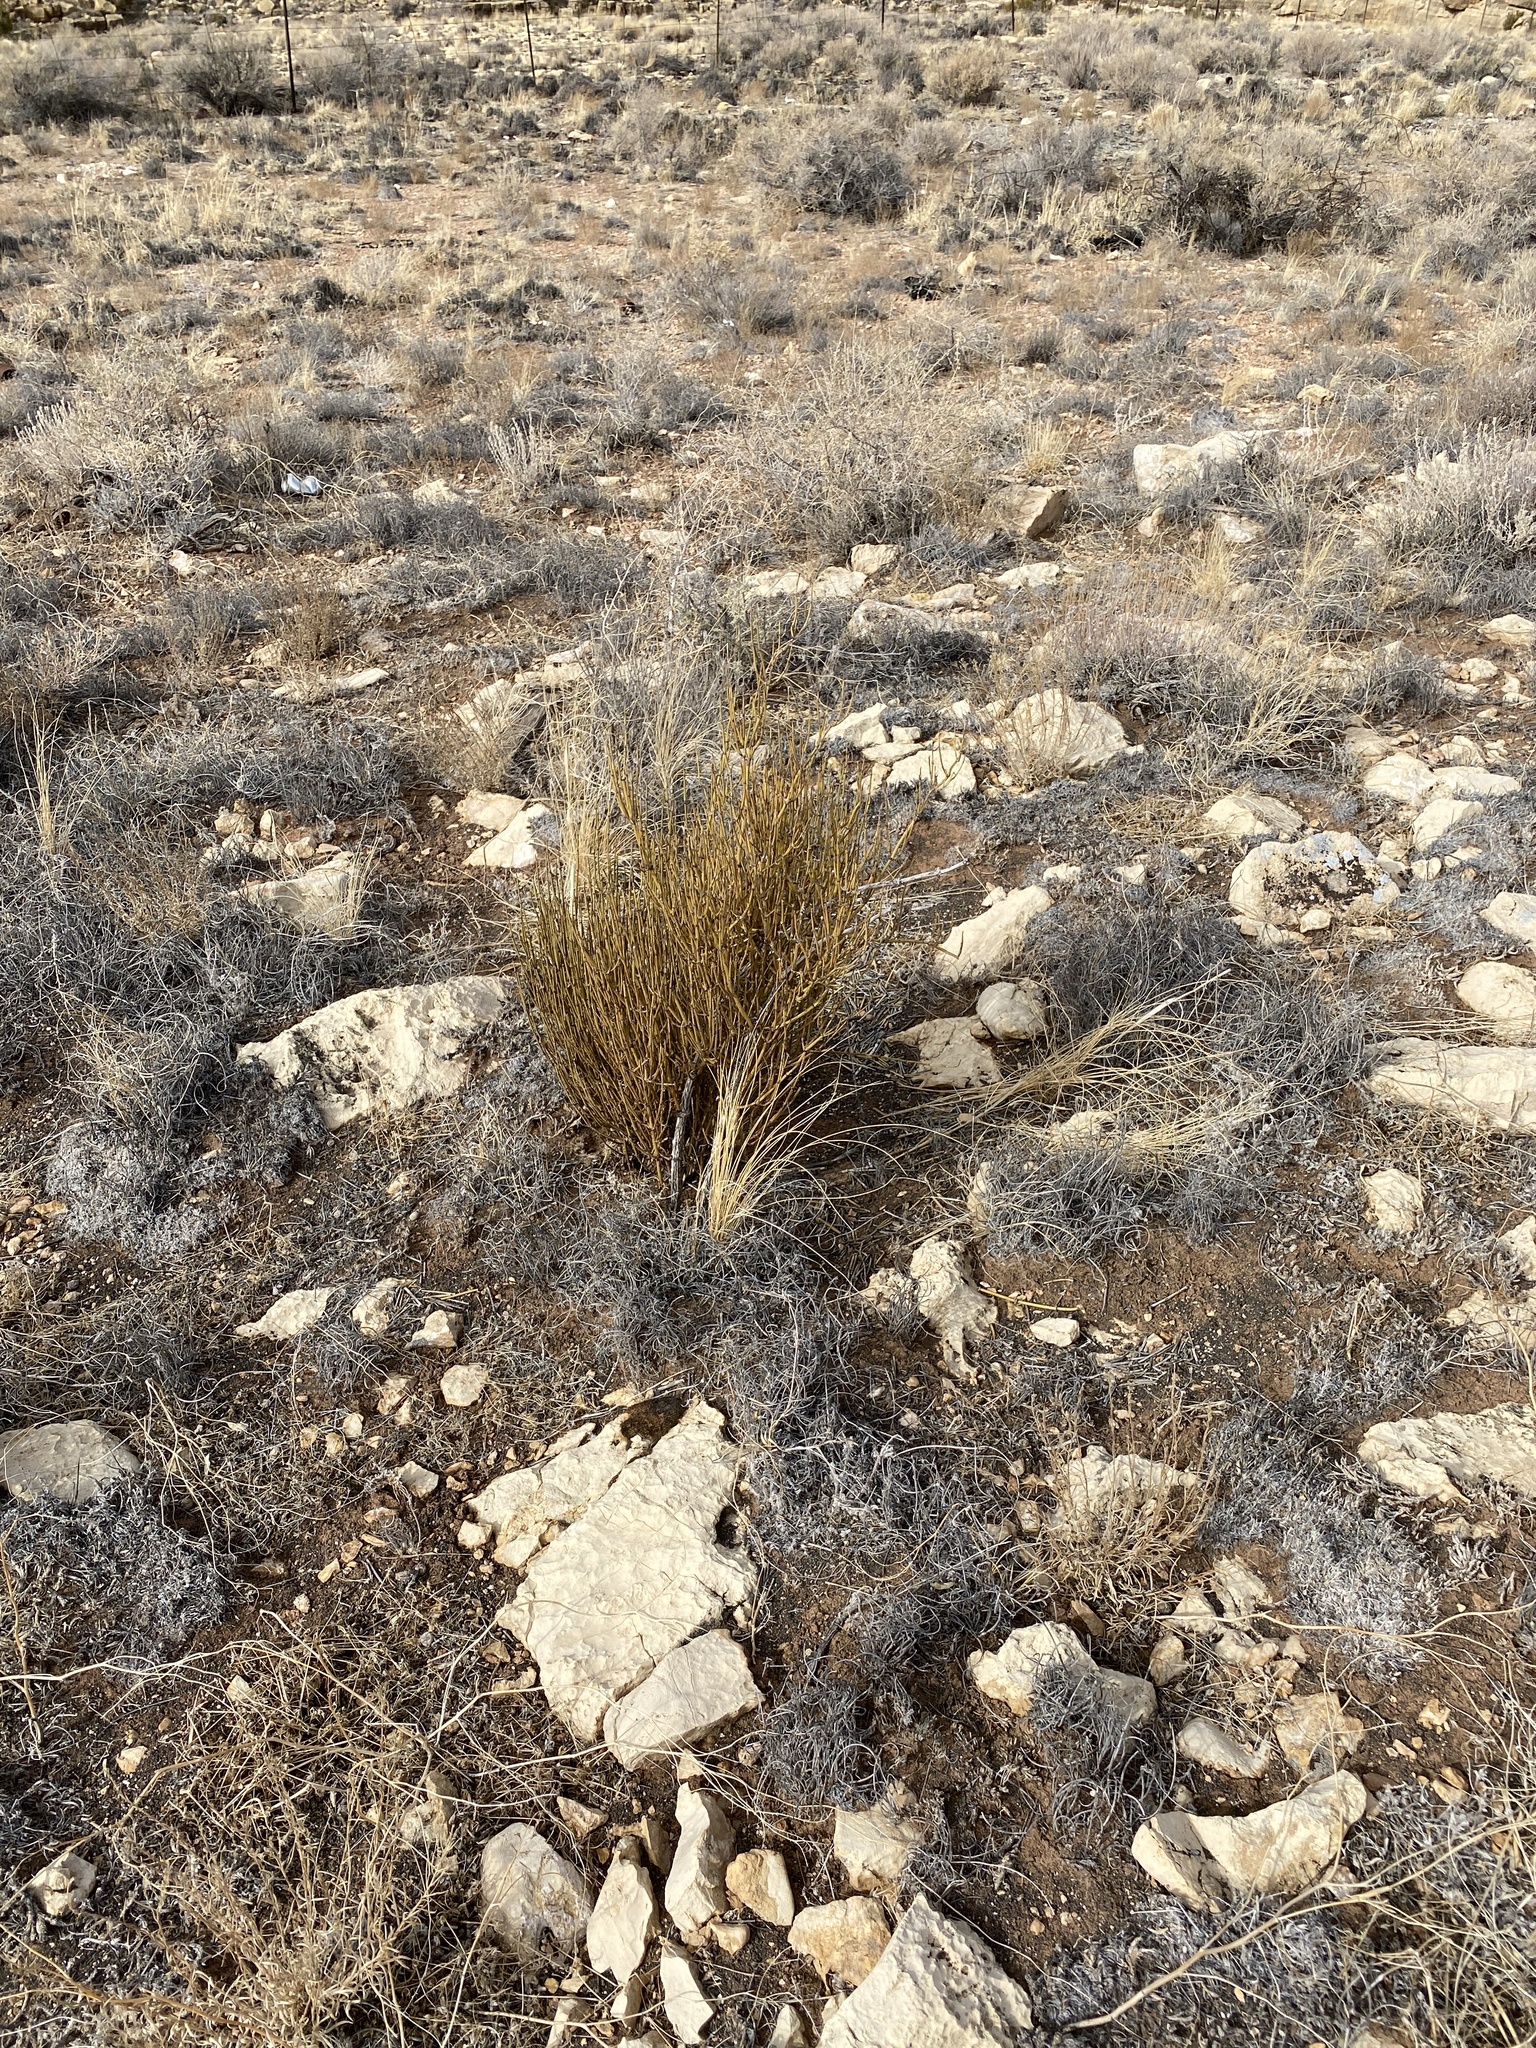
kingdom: Plantae
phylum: Tracheophyta
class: Gnetopsida
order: Ephedrales
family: Ephedraceae
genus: Ephedra
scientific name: Ephedra viridis
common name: Green ephedra
